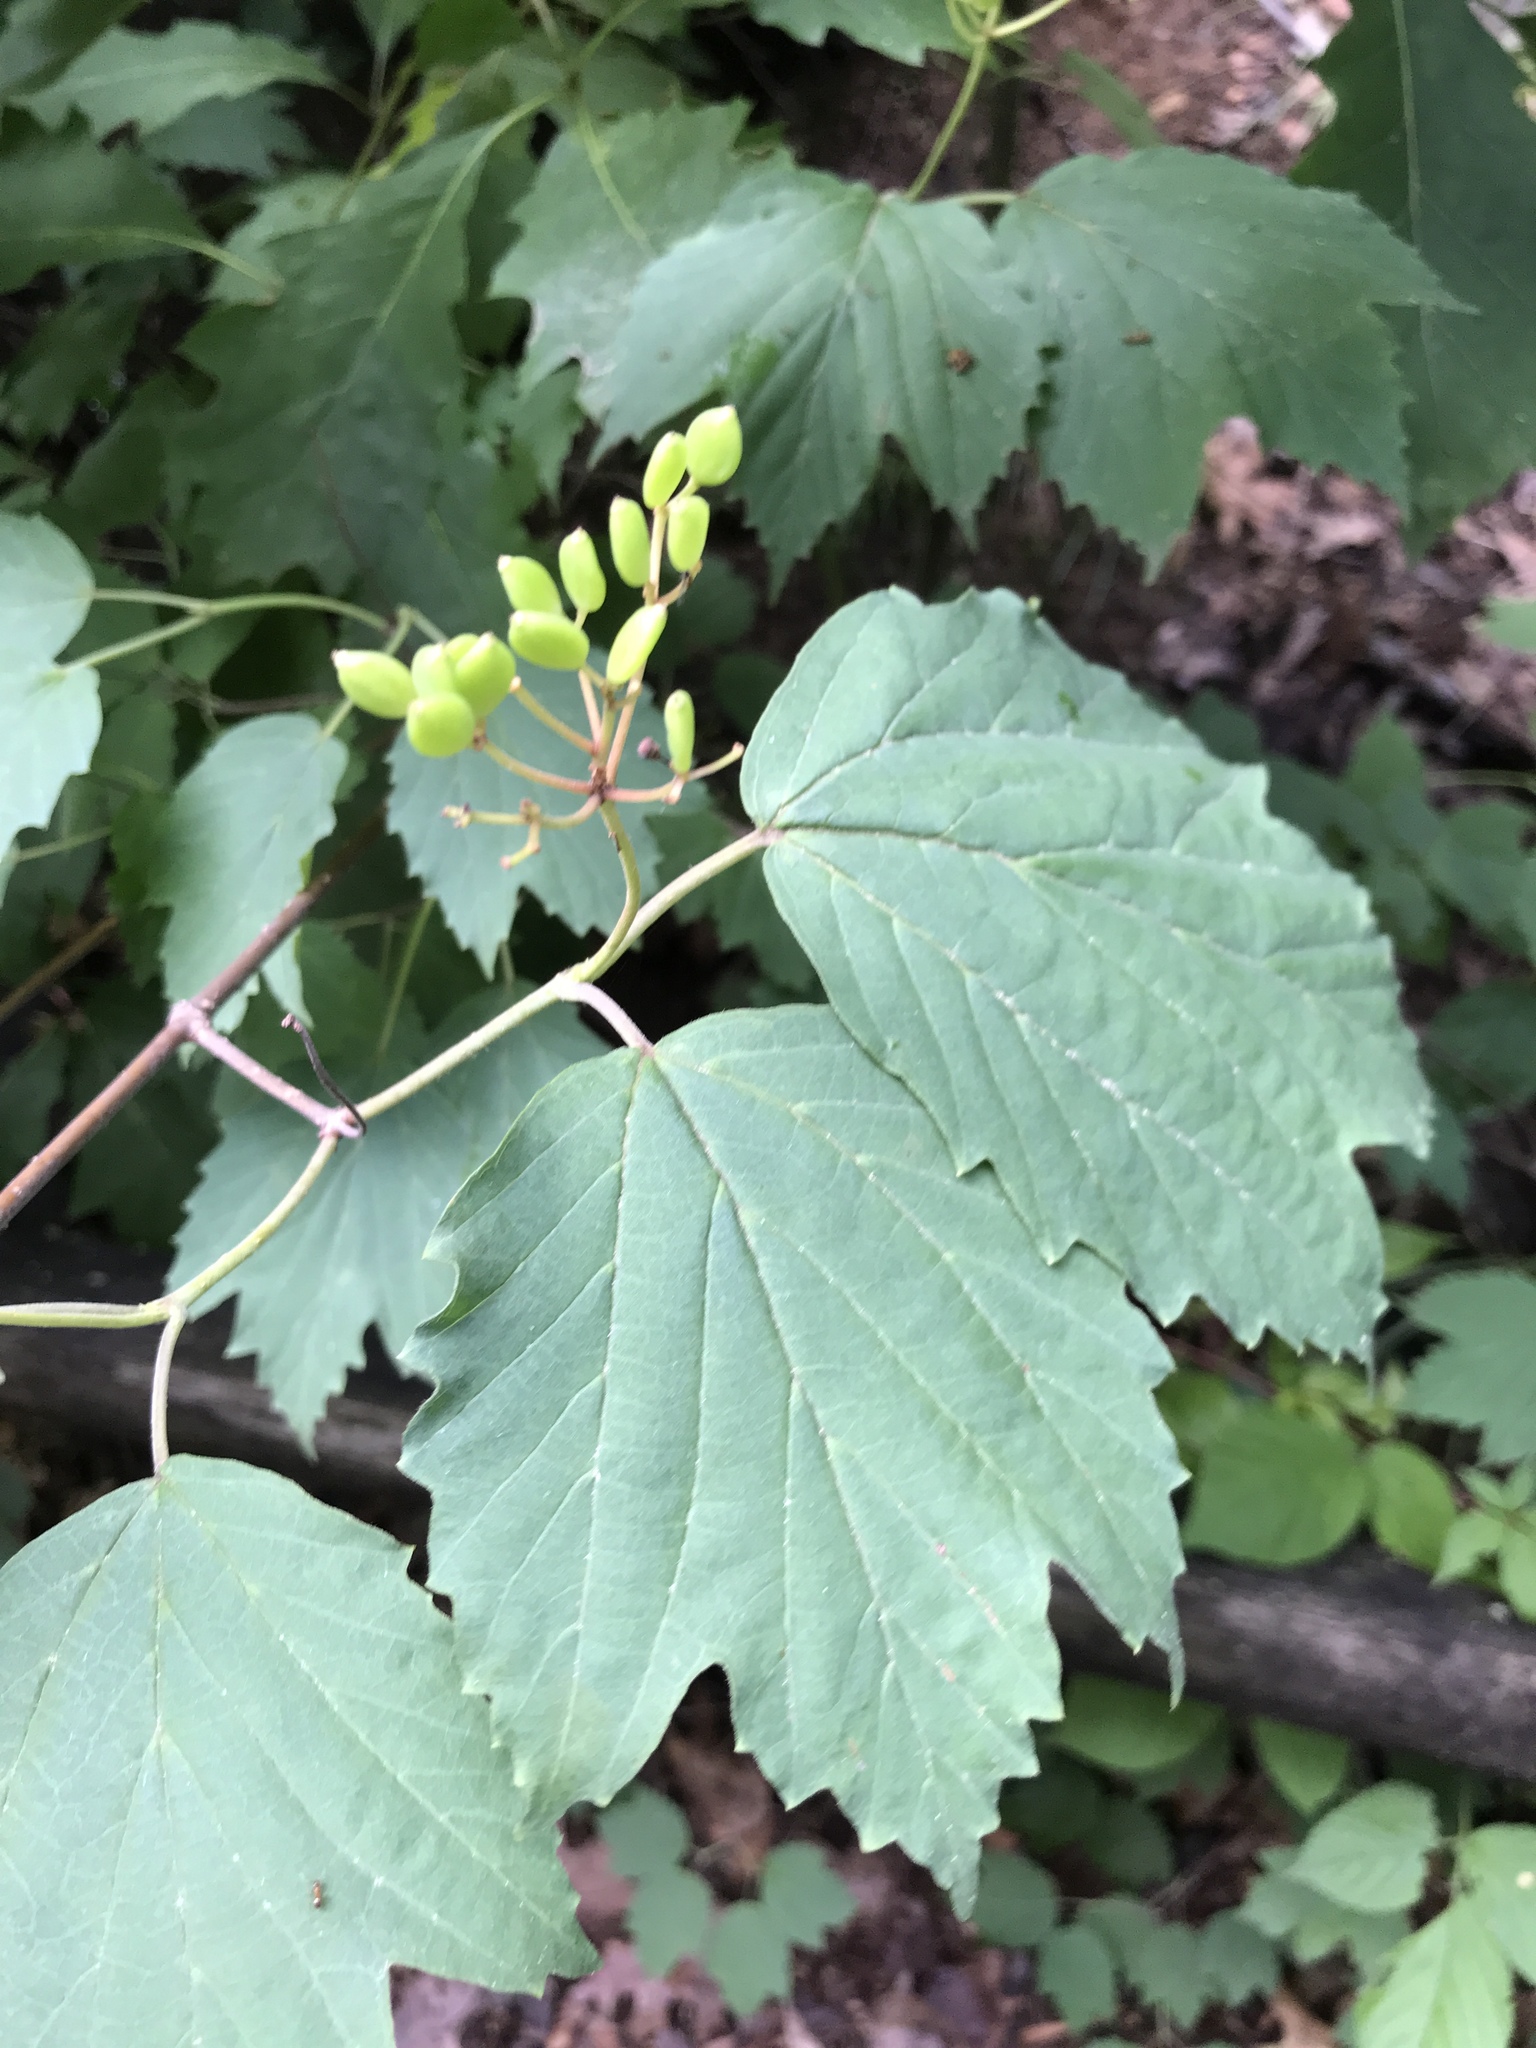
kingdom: Plantae
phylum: Tracheophyta
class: Magnoliopsida
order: Dipsacales
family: Viburnaceae
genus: Viburnum
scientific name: Viburnum acerifolium
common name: Dockmackie
